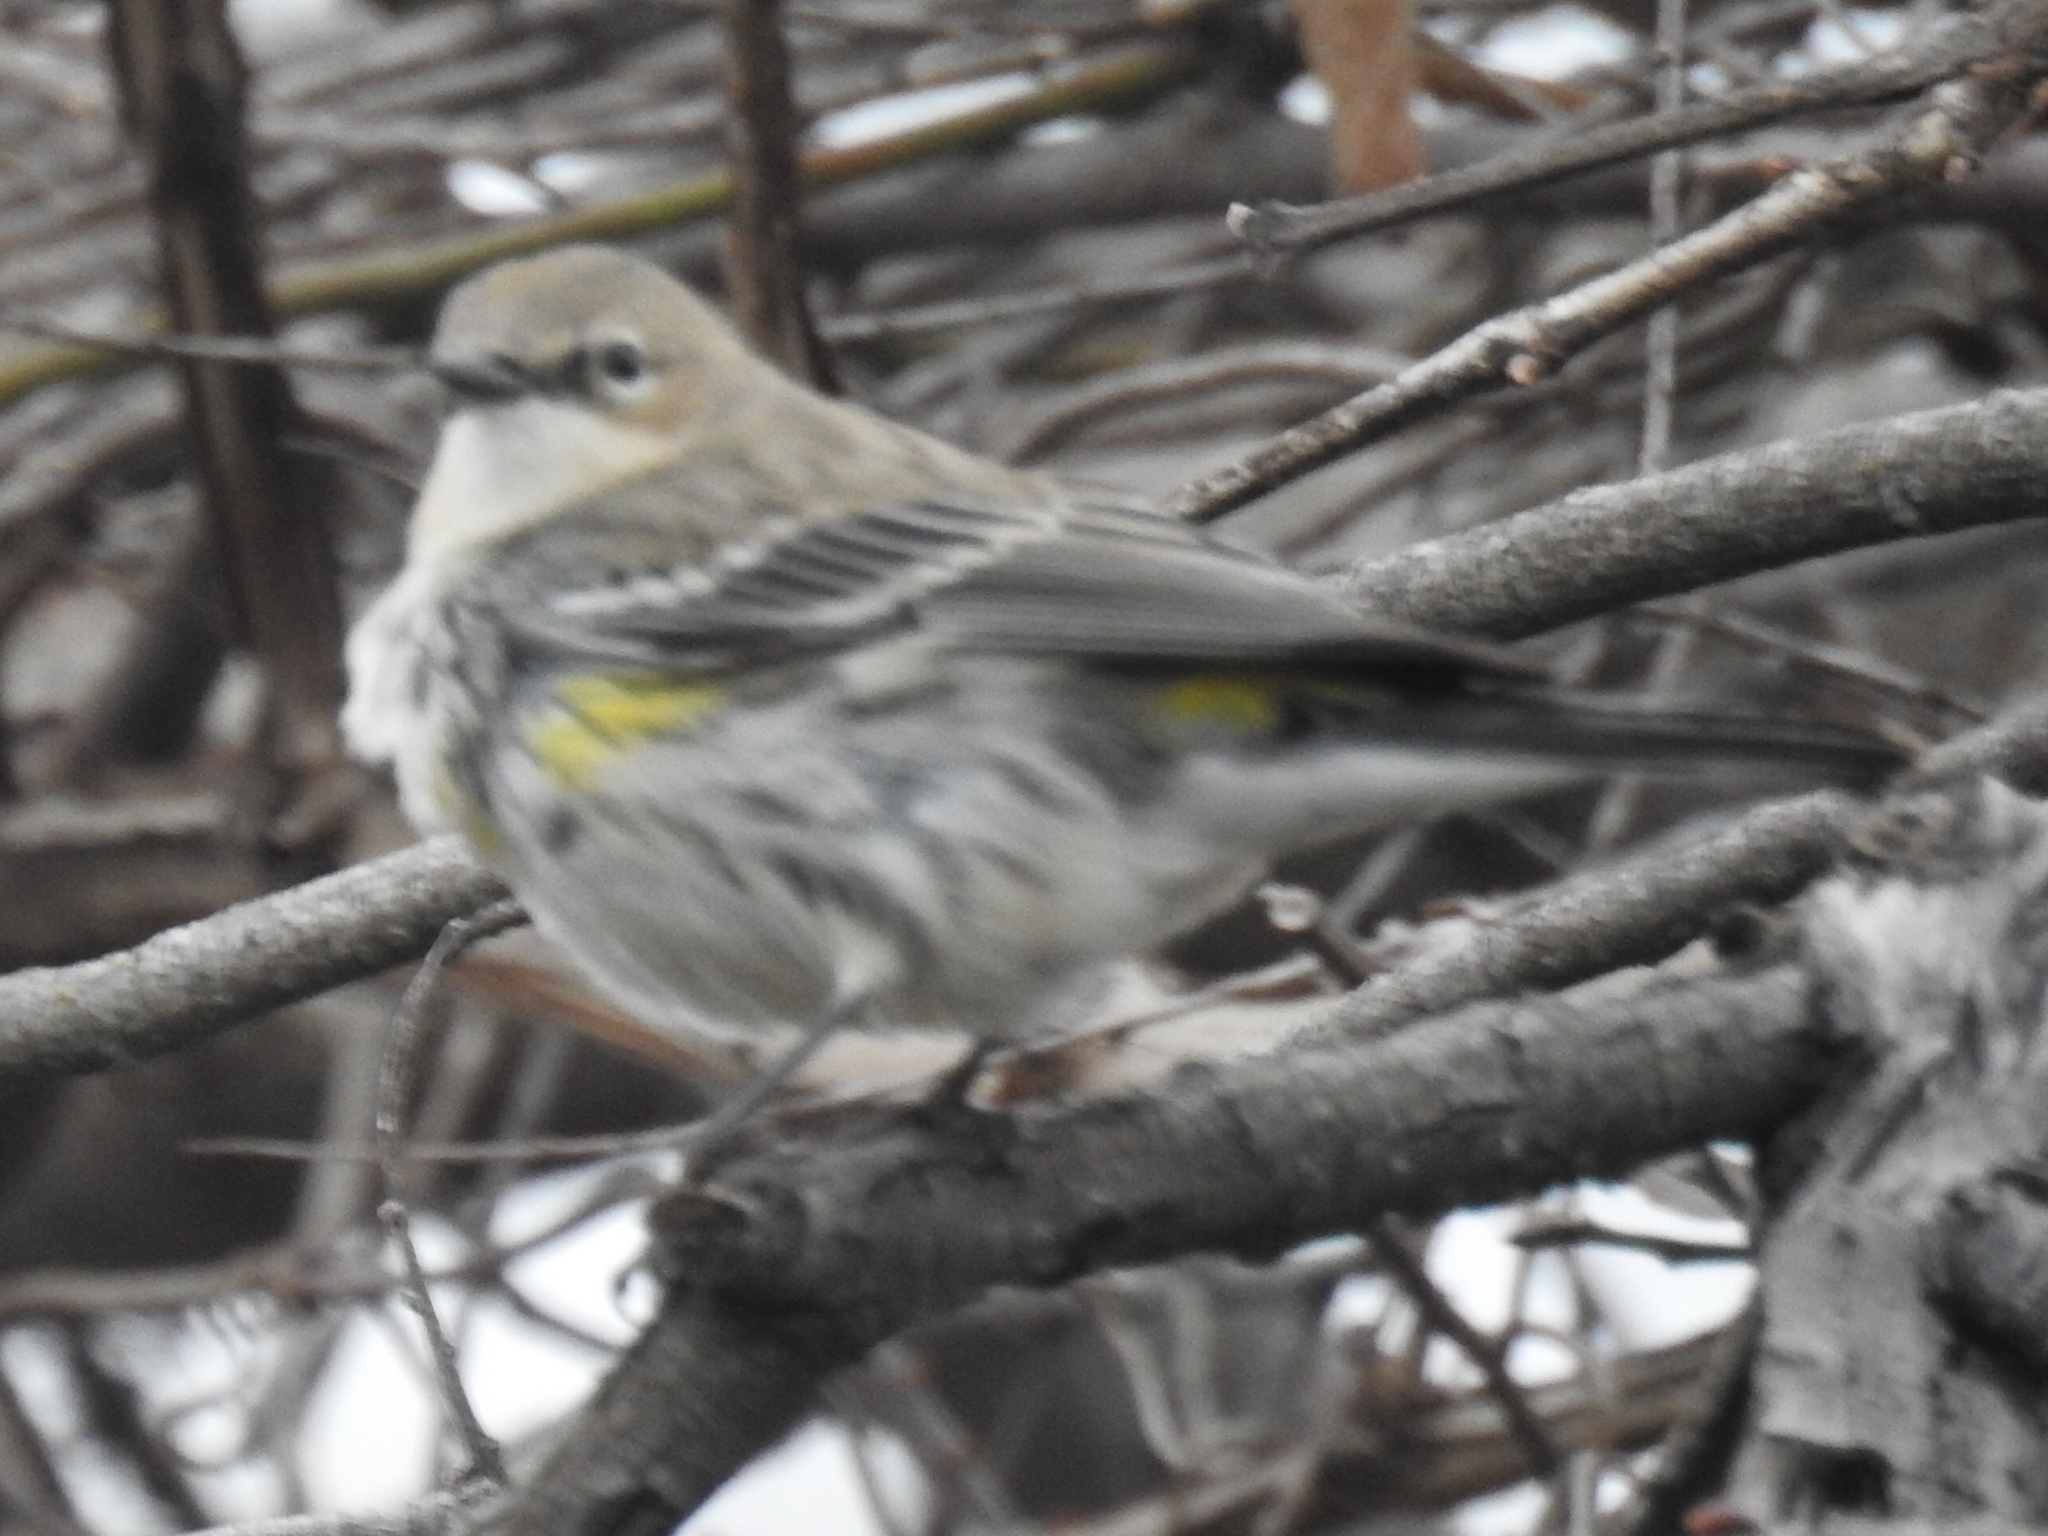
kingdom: Animalia
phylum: Chordata
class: Aves
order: Passeriformes
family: Parulidae
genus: Setophaga
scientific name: Setophaga coronata
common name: Myrtle warbler
